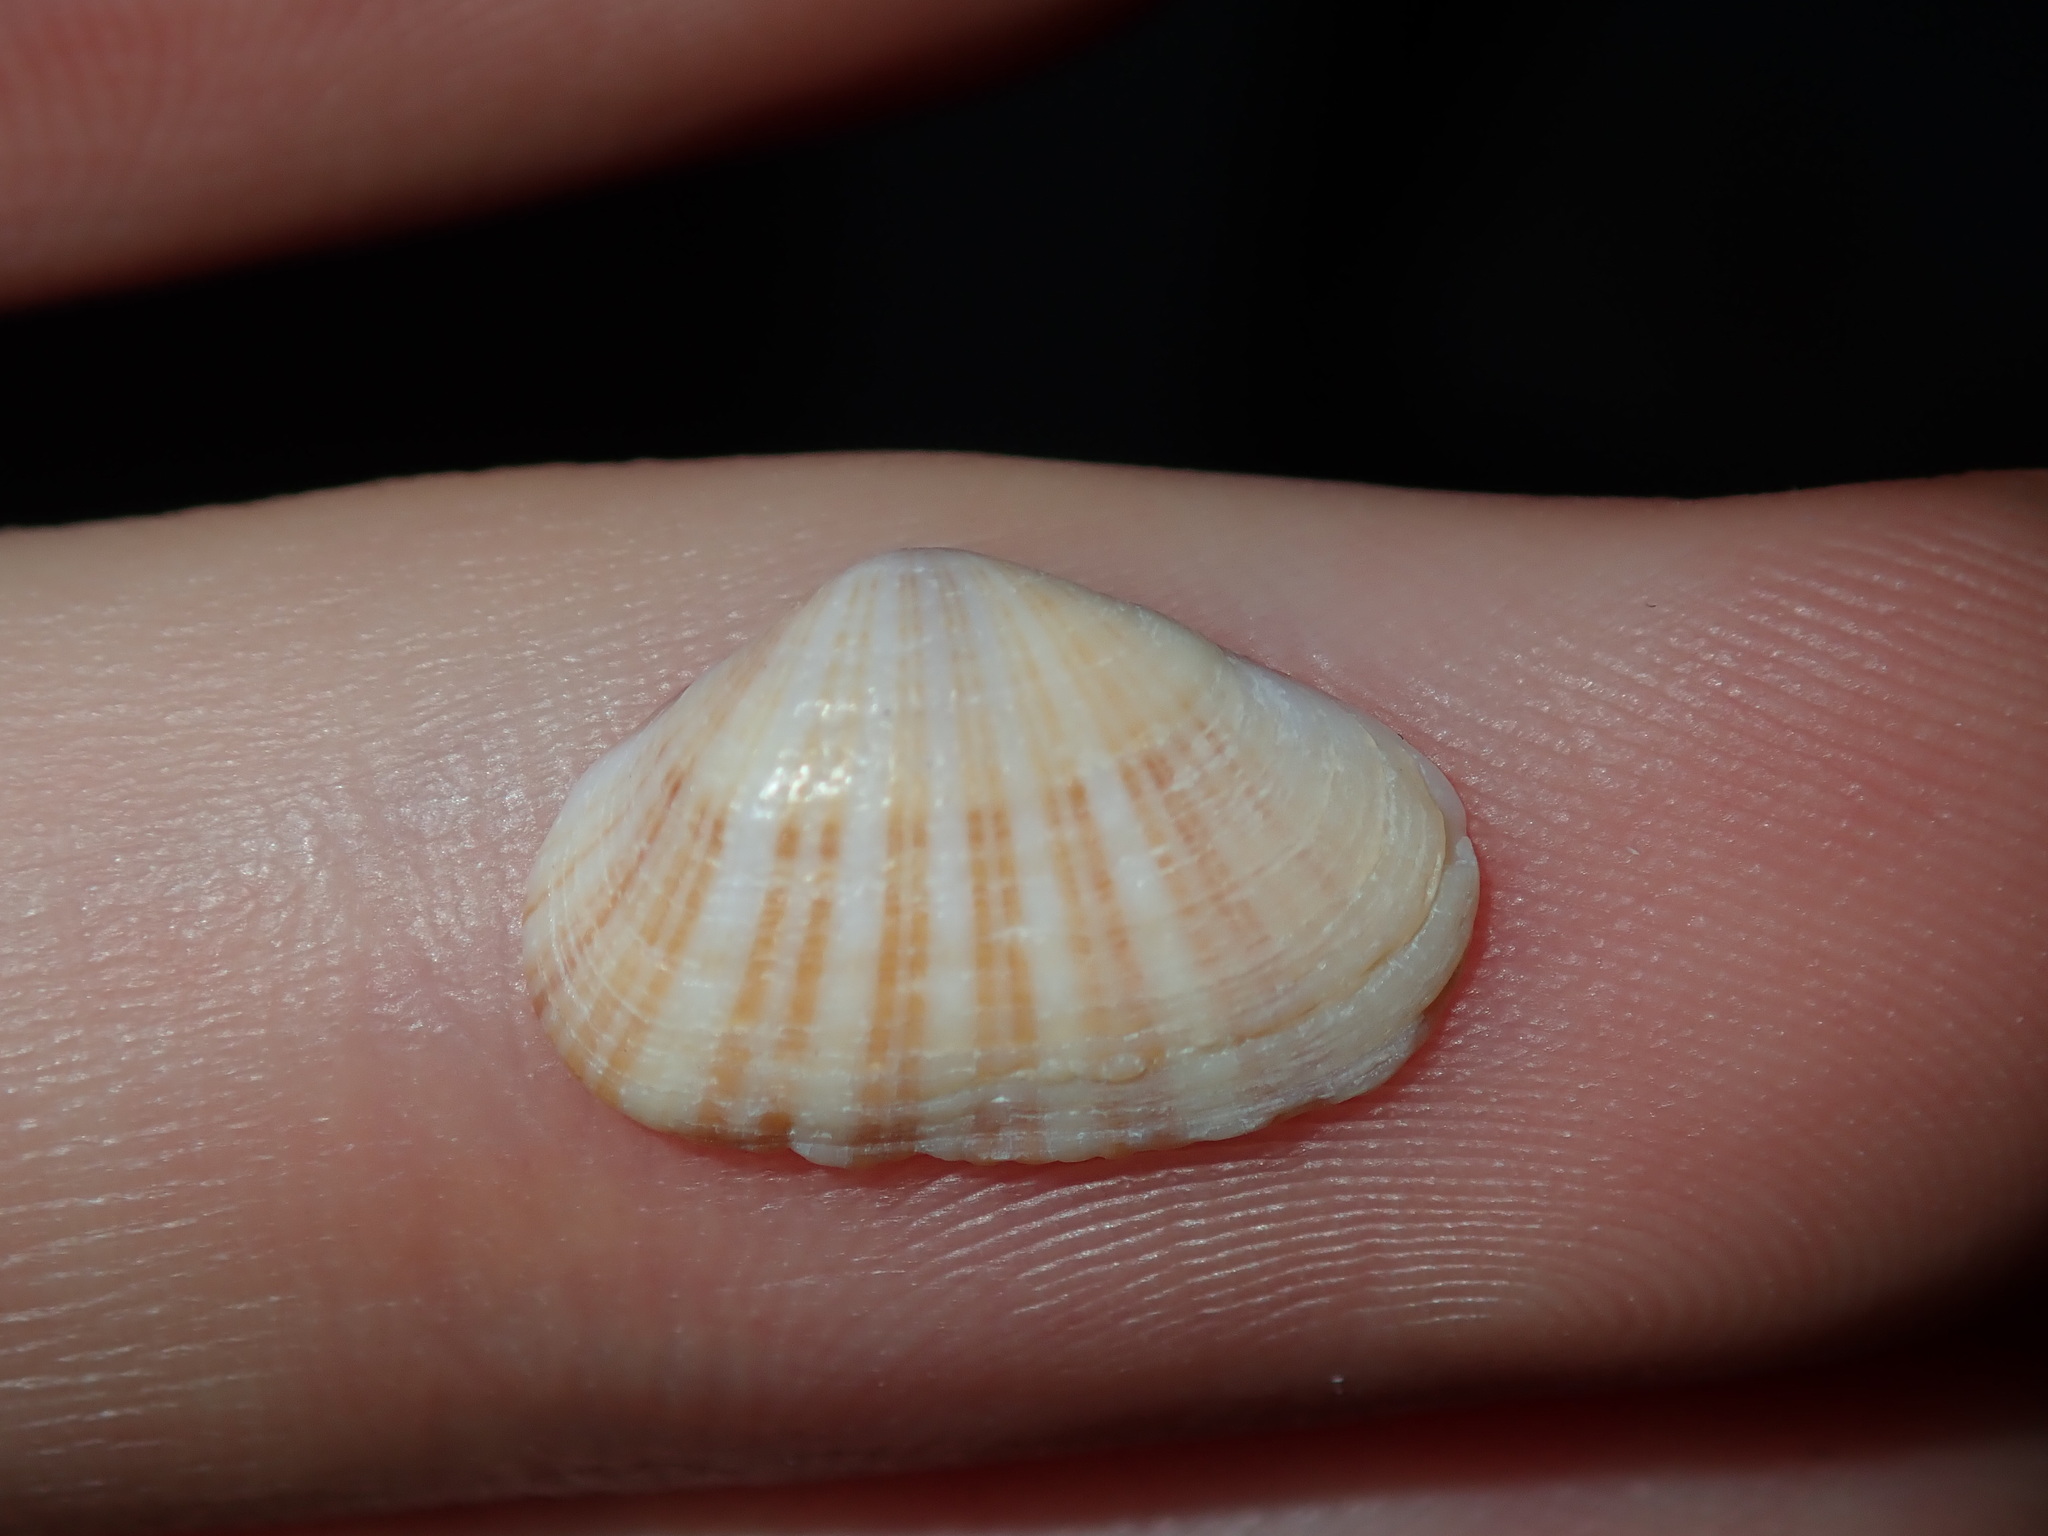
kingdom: Animalia
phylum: Mollusca
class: Bivalvia
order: Venerida
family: Hemidonacidae
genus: Hemidonax
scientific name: Hemidonax dactylus
